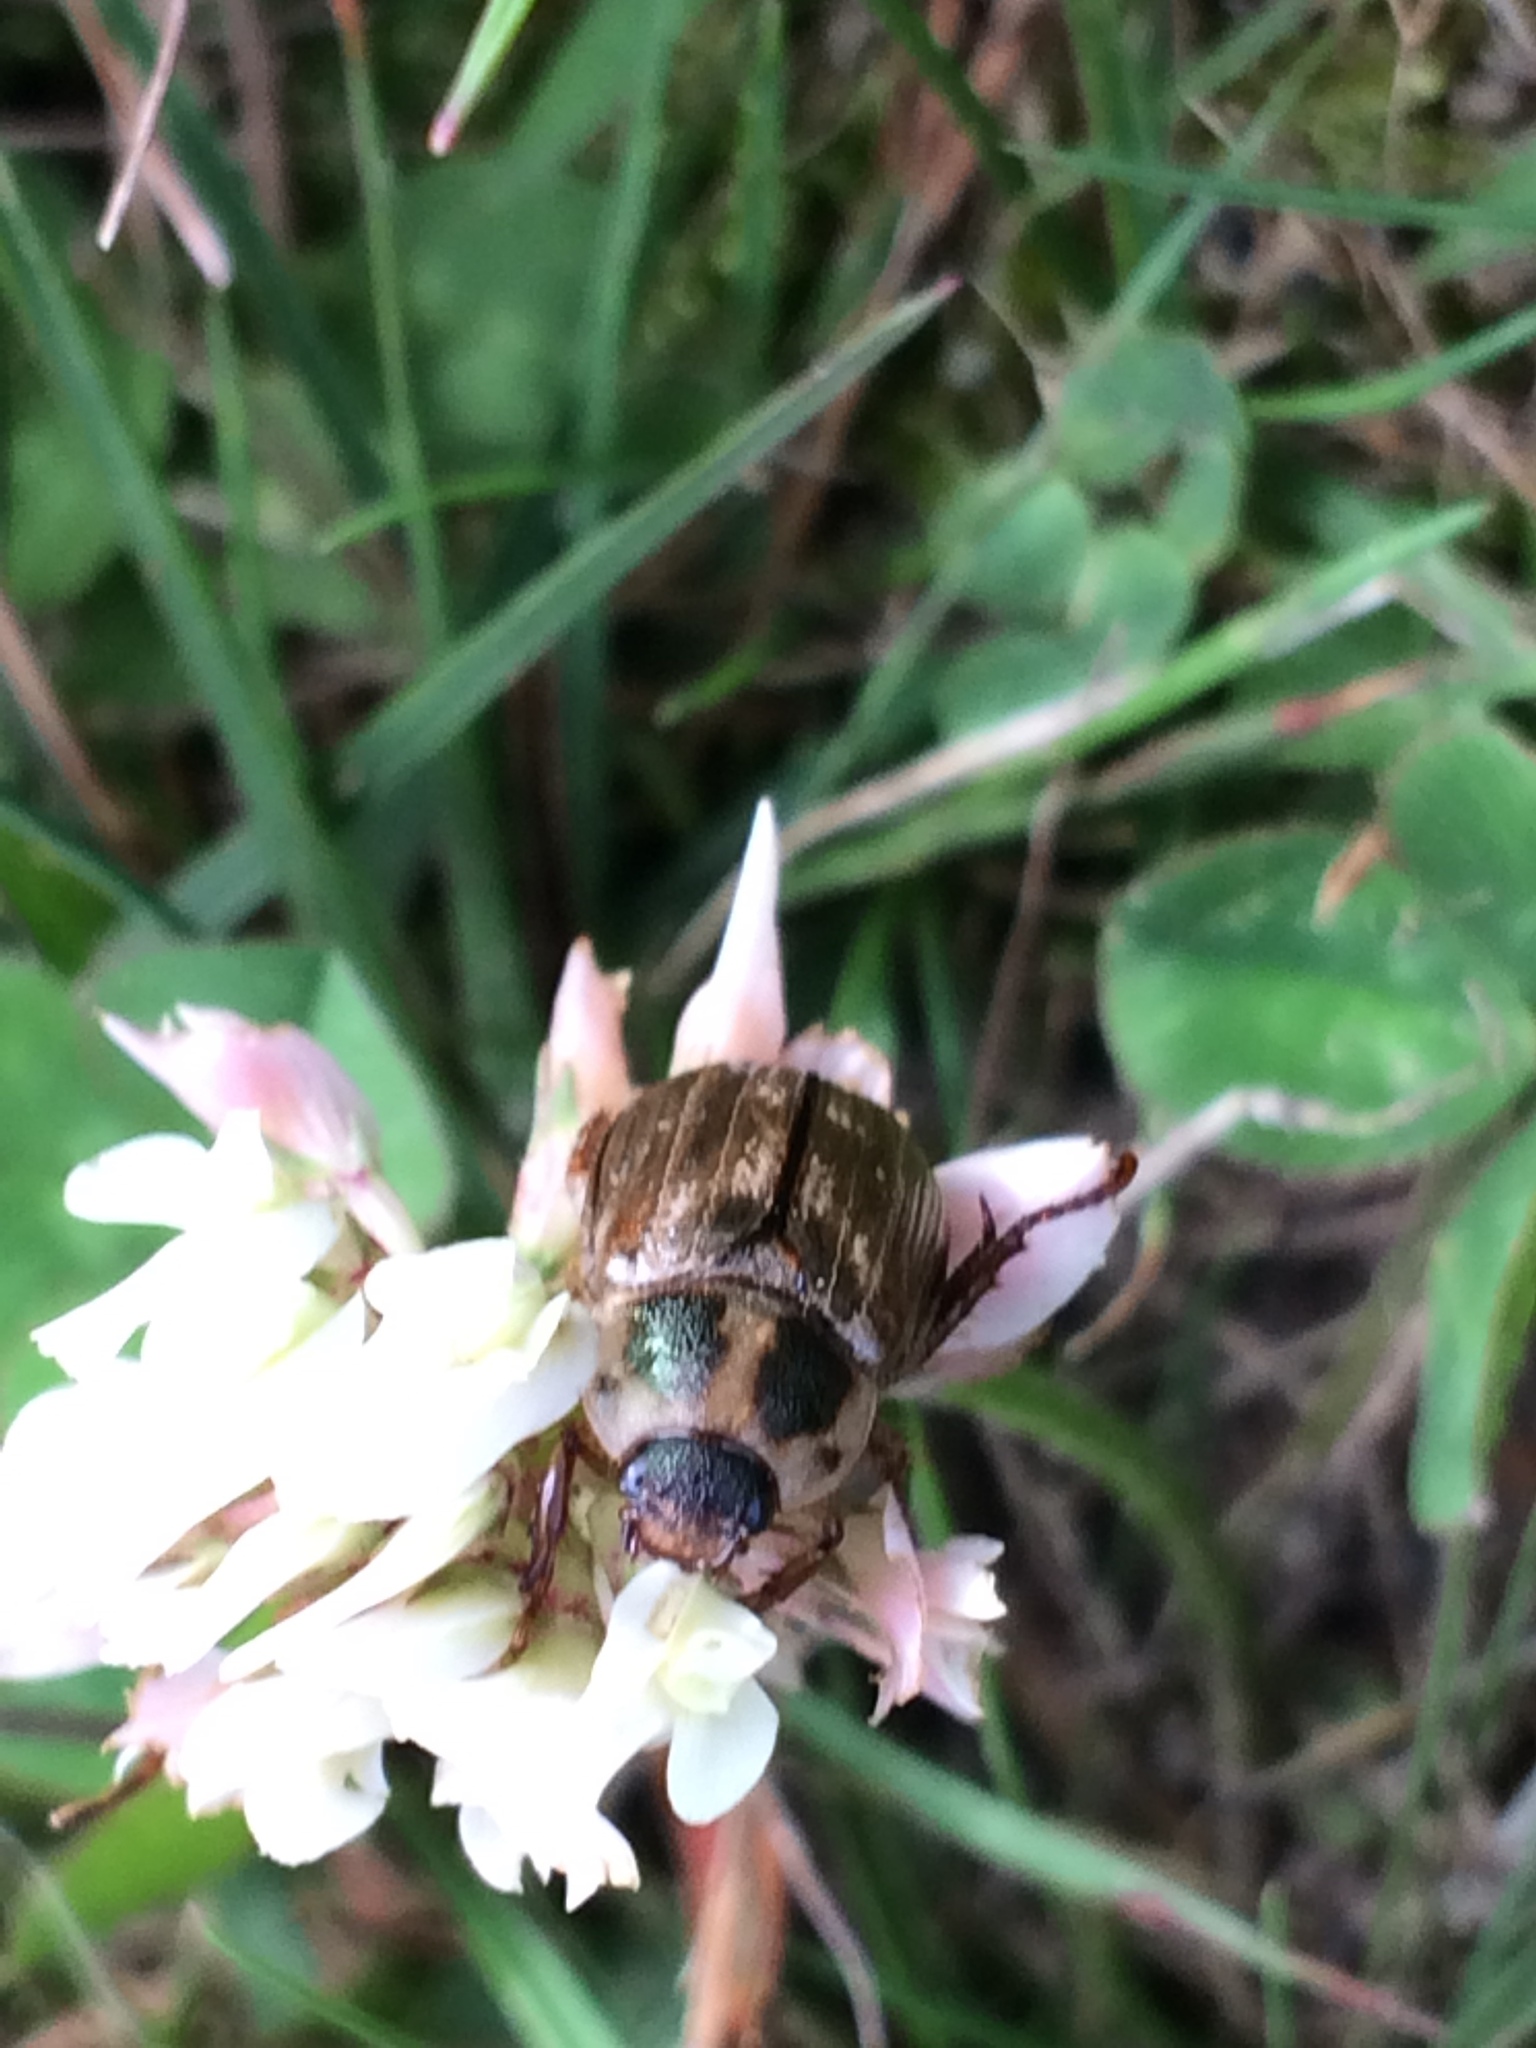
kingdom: Animalia
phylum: Arthropoda
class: Insecta
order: Coleoptera
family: Scarabaeidae
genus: Exomala
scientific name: Exomala orientalis
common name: Oriental beetle
